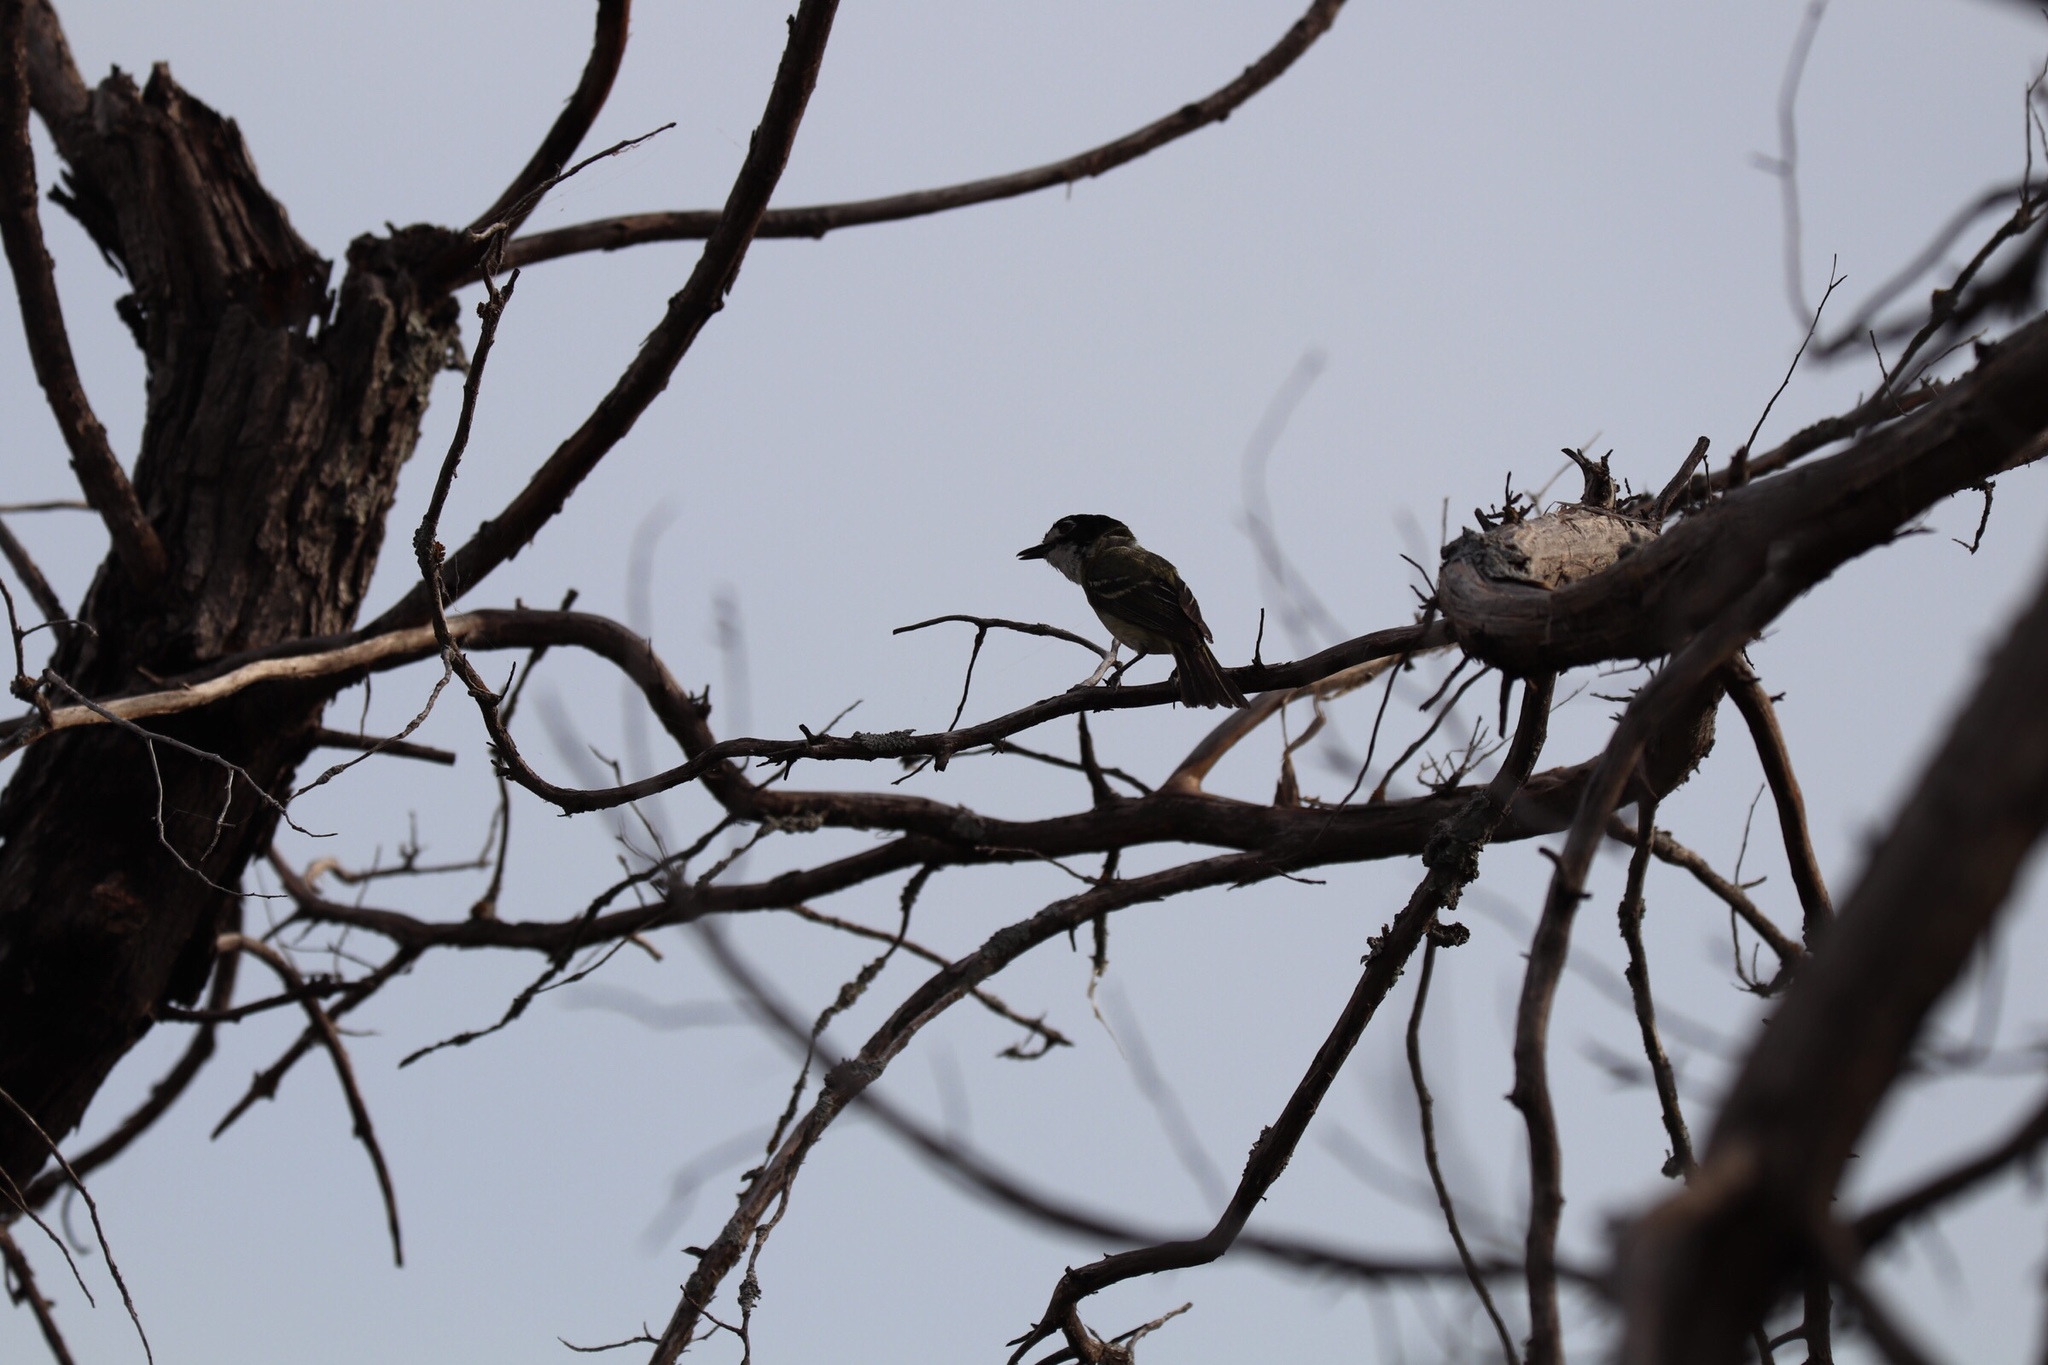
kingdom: Animalia
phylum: Chordata
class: Aves
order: Passeriformes
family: Vireonidae
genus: Vireo
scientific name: Vireo atricapilla
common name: Black-capped vireo
